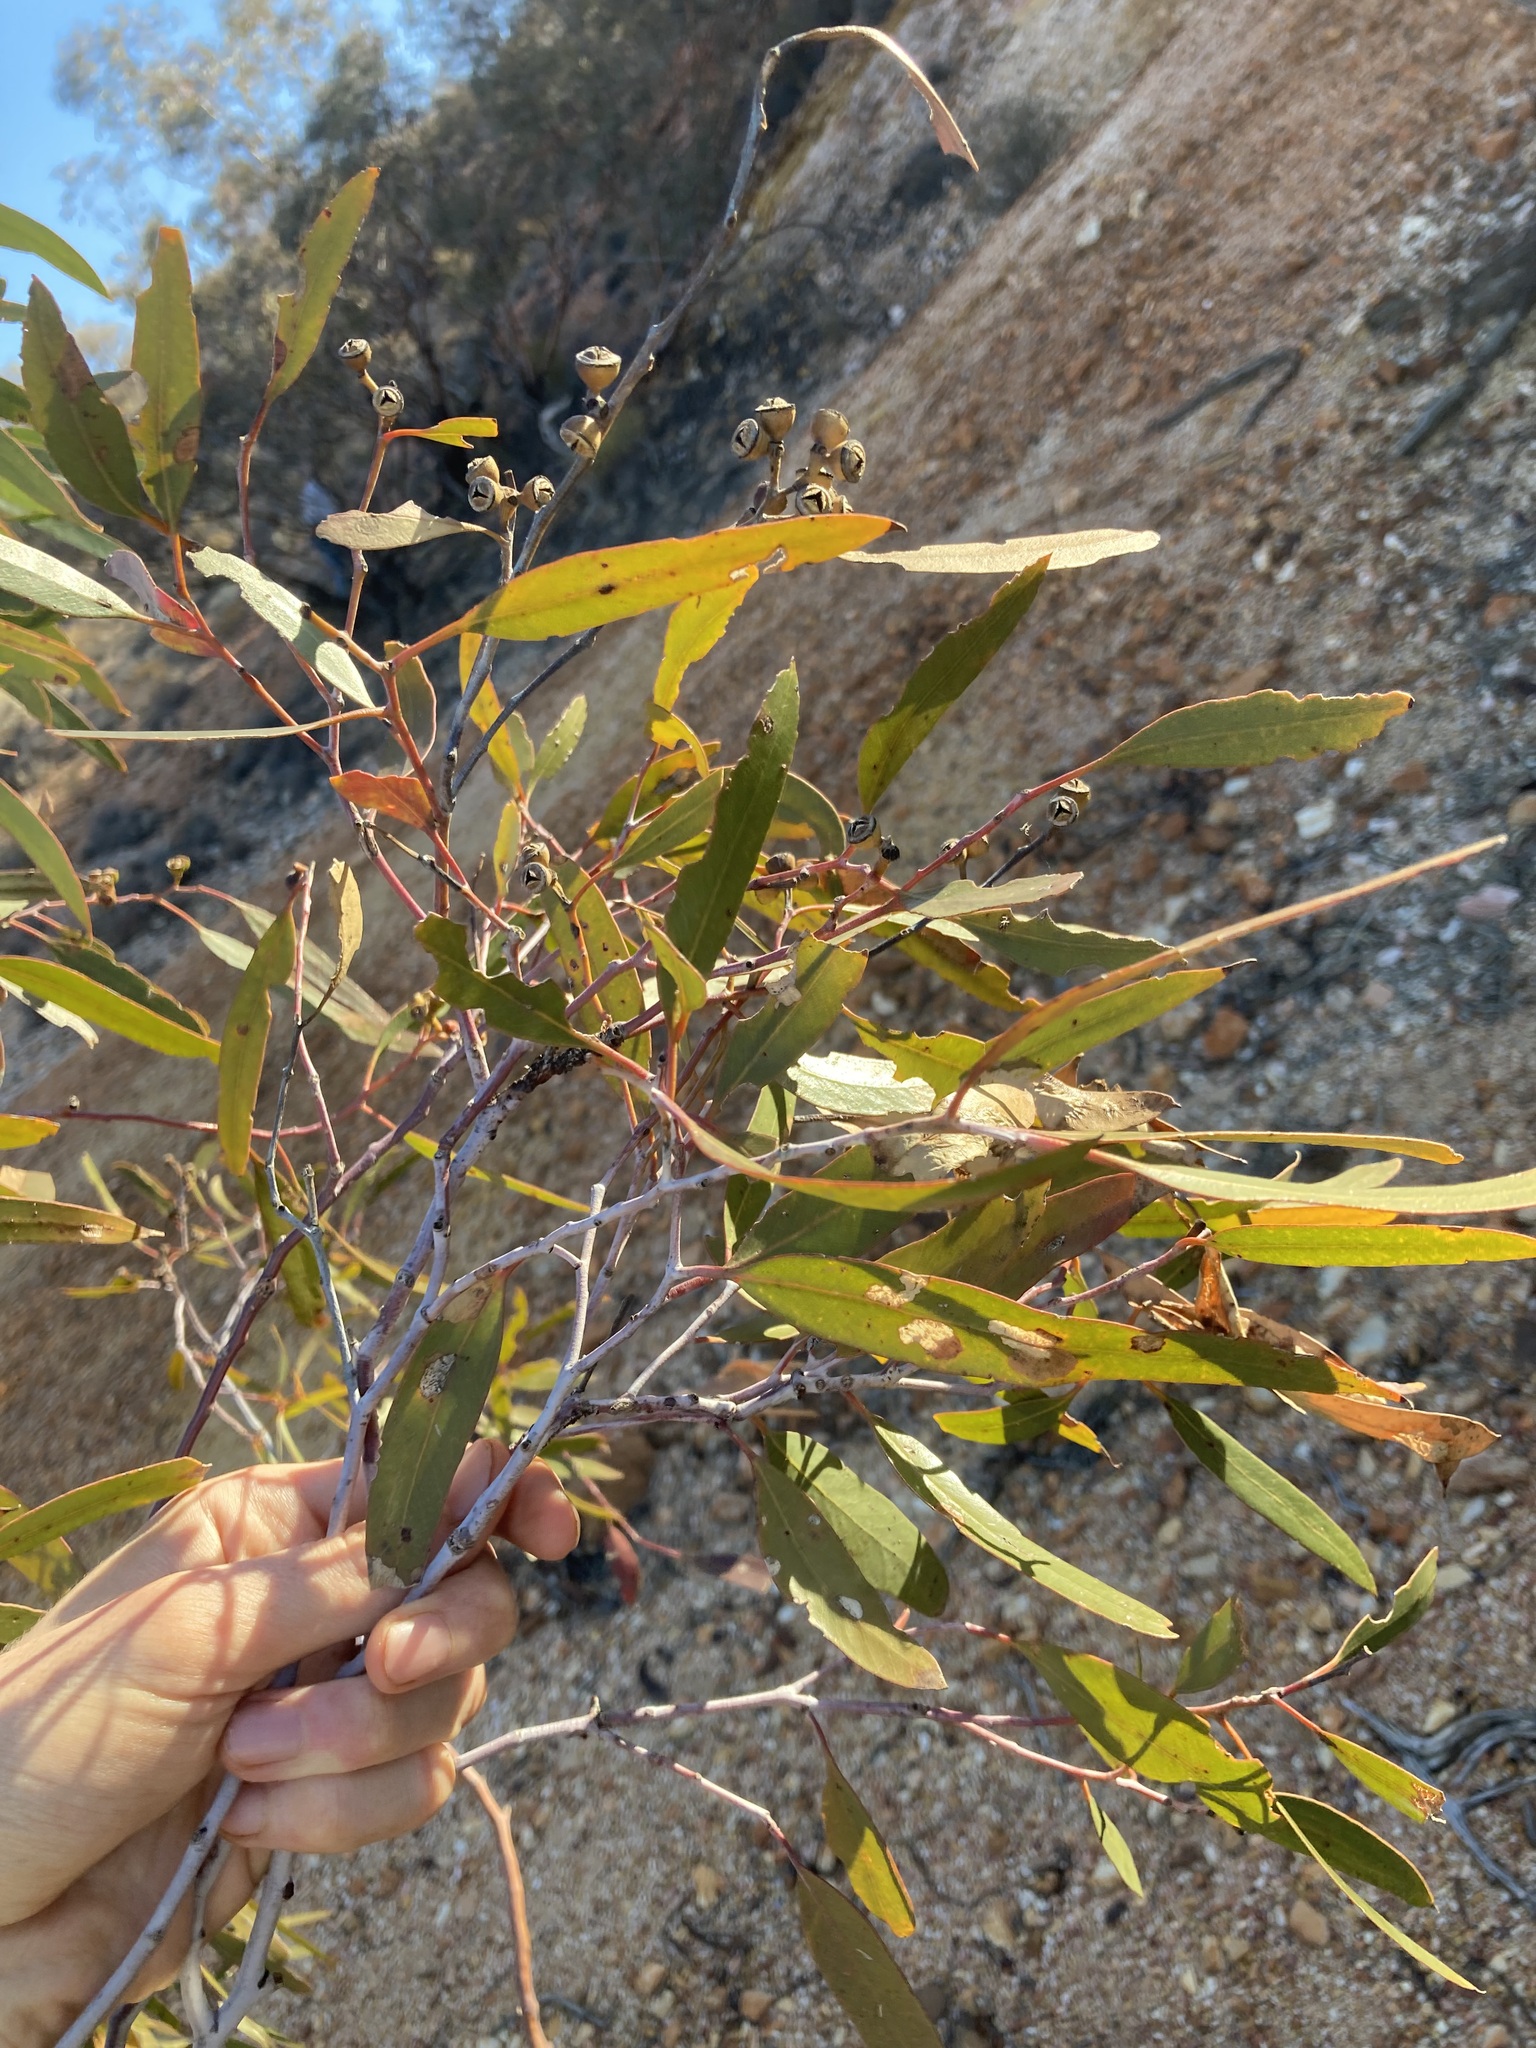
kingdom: Plantae
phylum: Tracheophyta
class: Magnoliopsida
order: Myrtales
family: Myrtaceae
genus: Eucalyptus
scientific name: Eucalyptus effusa
